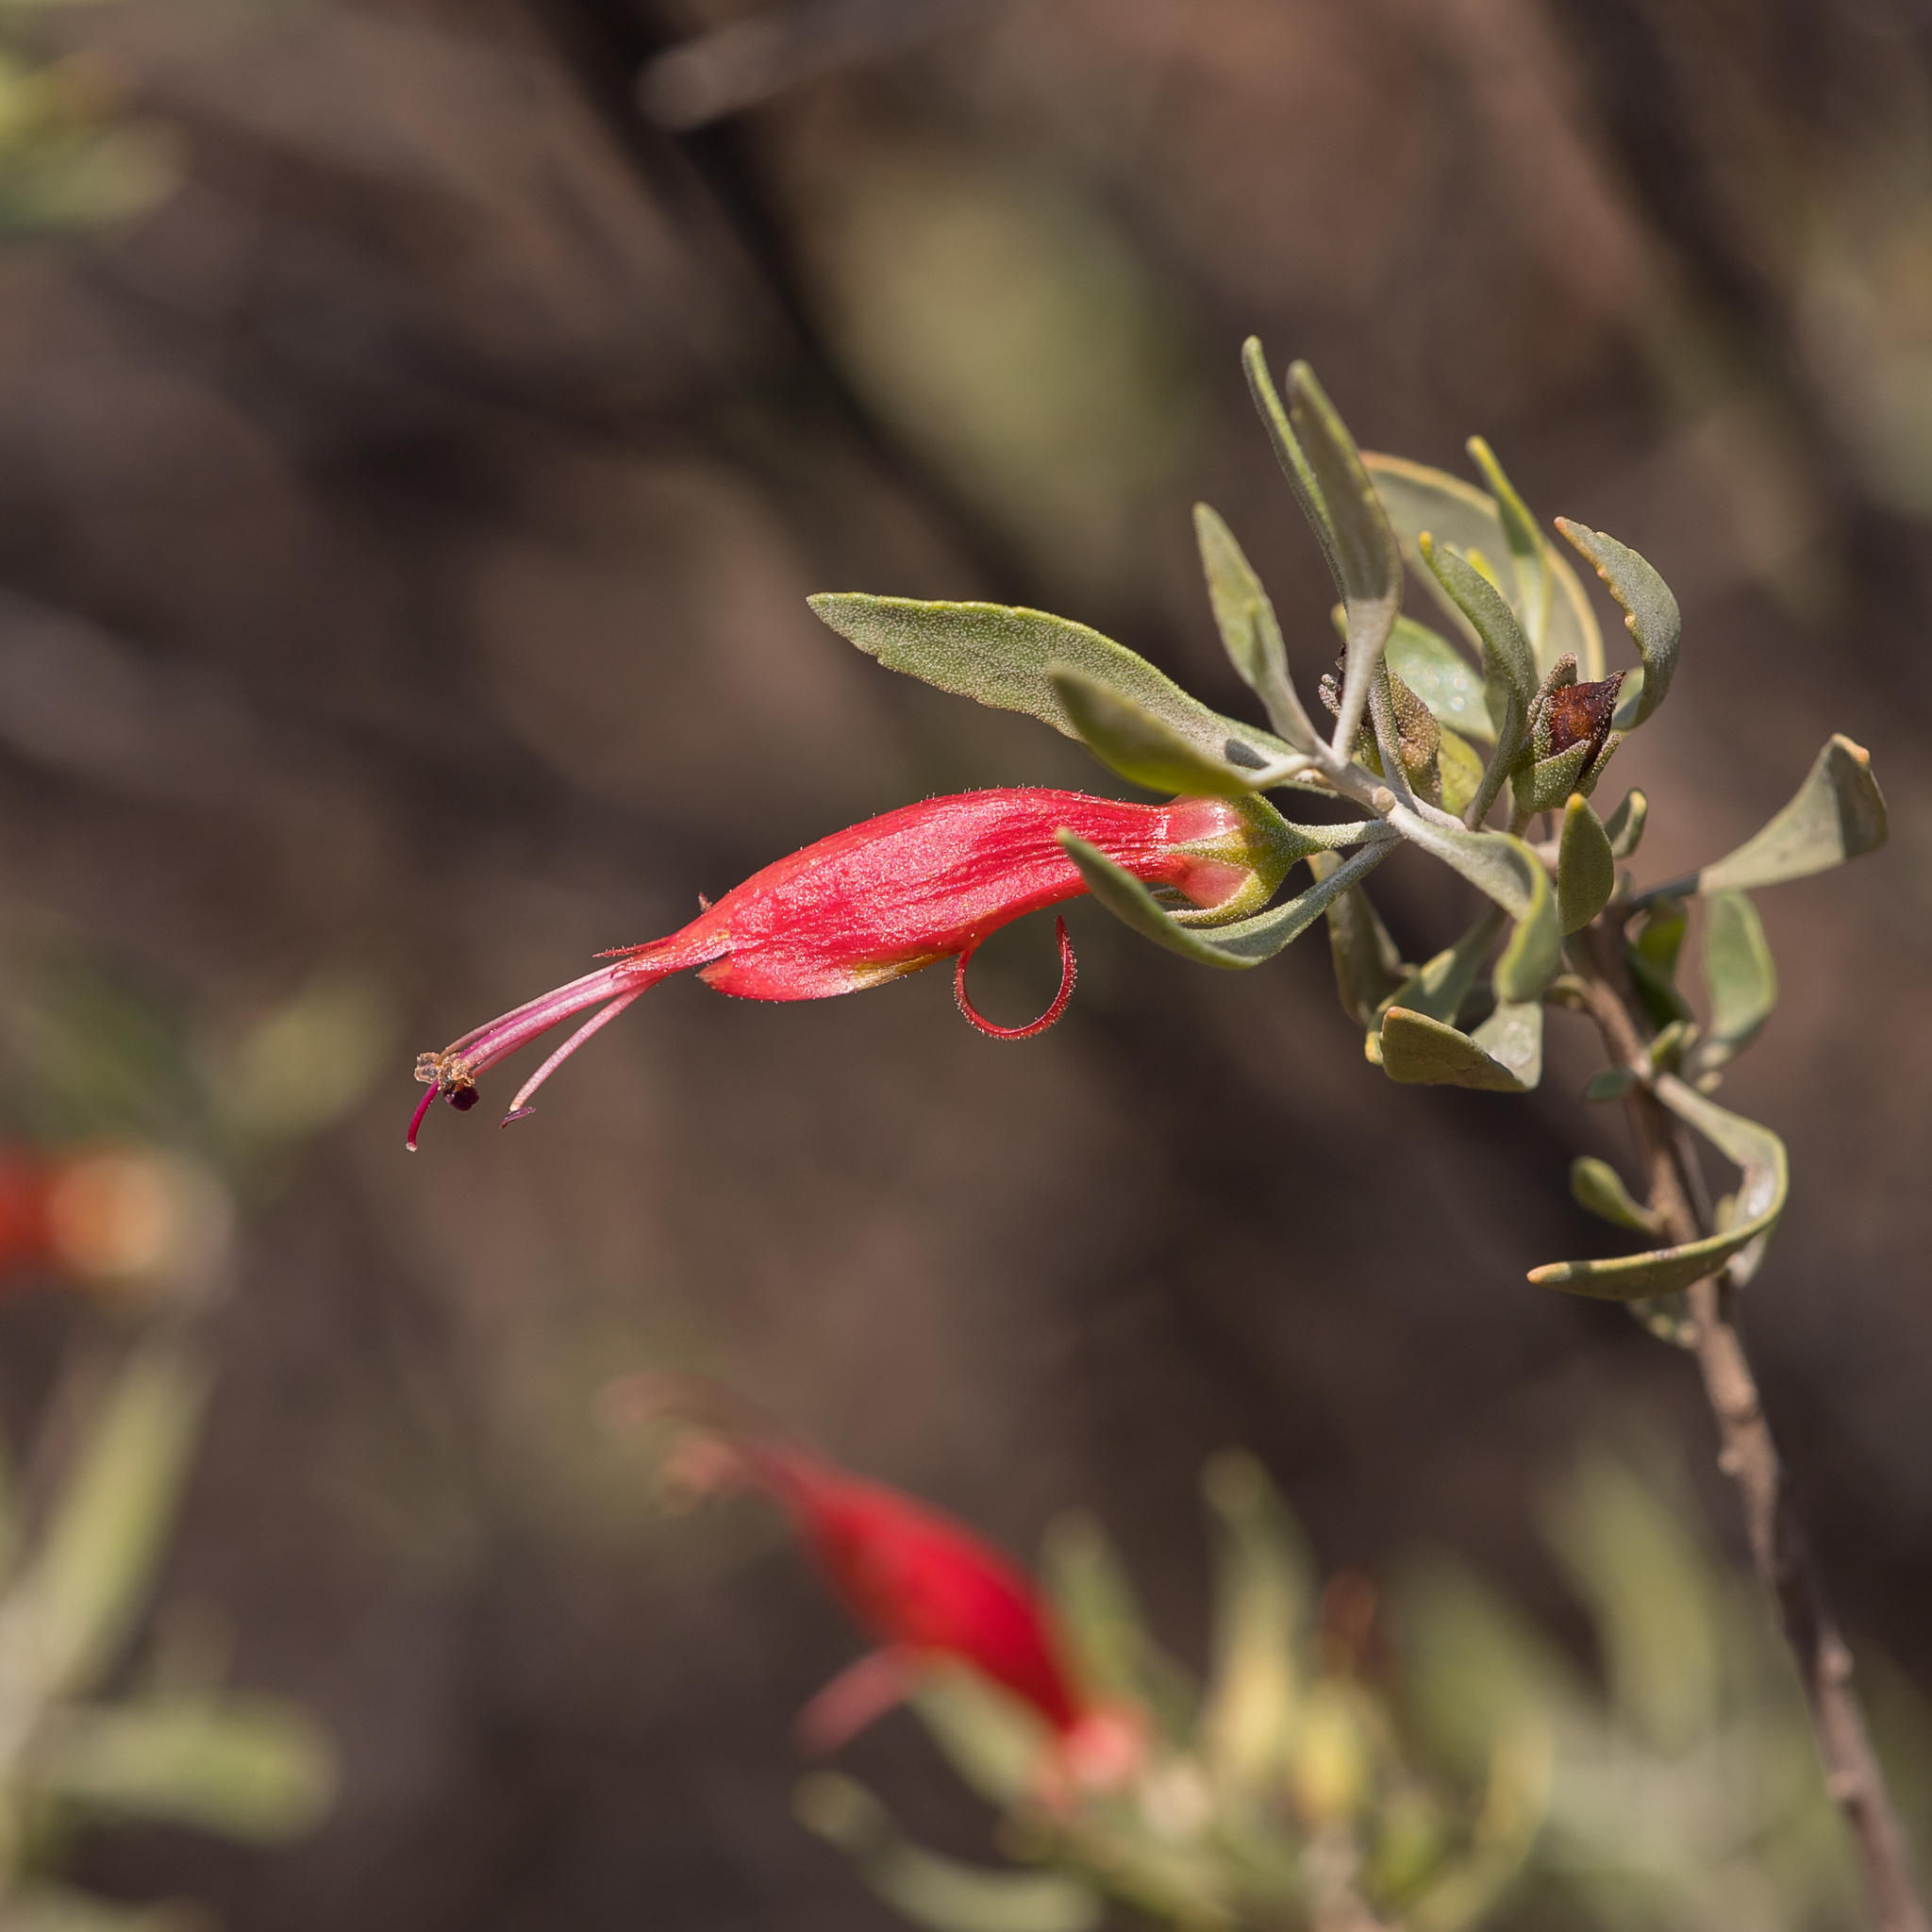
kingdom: Plantae
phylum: Tracheophyta
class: Magnoliopsida
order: Lamiales
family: Scrophulariaceae
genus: Eremophila
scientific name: Eremophila glabra
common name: Black-fuchsia
